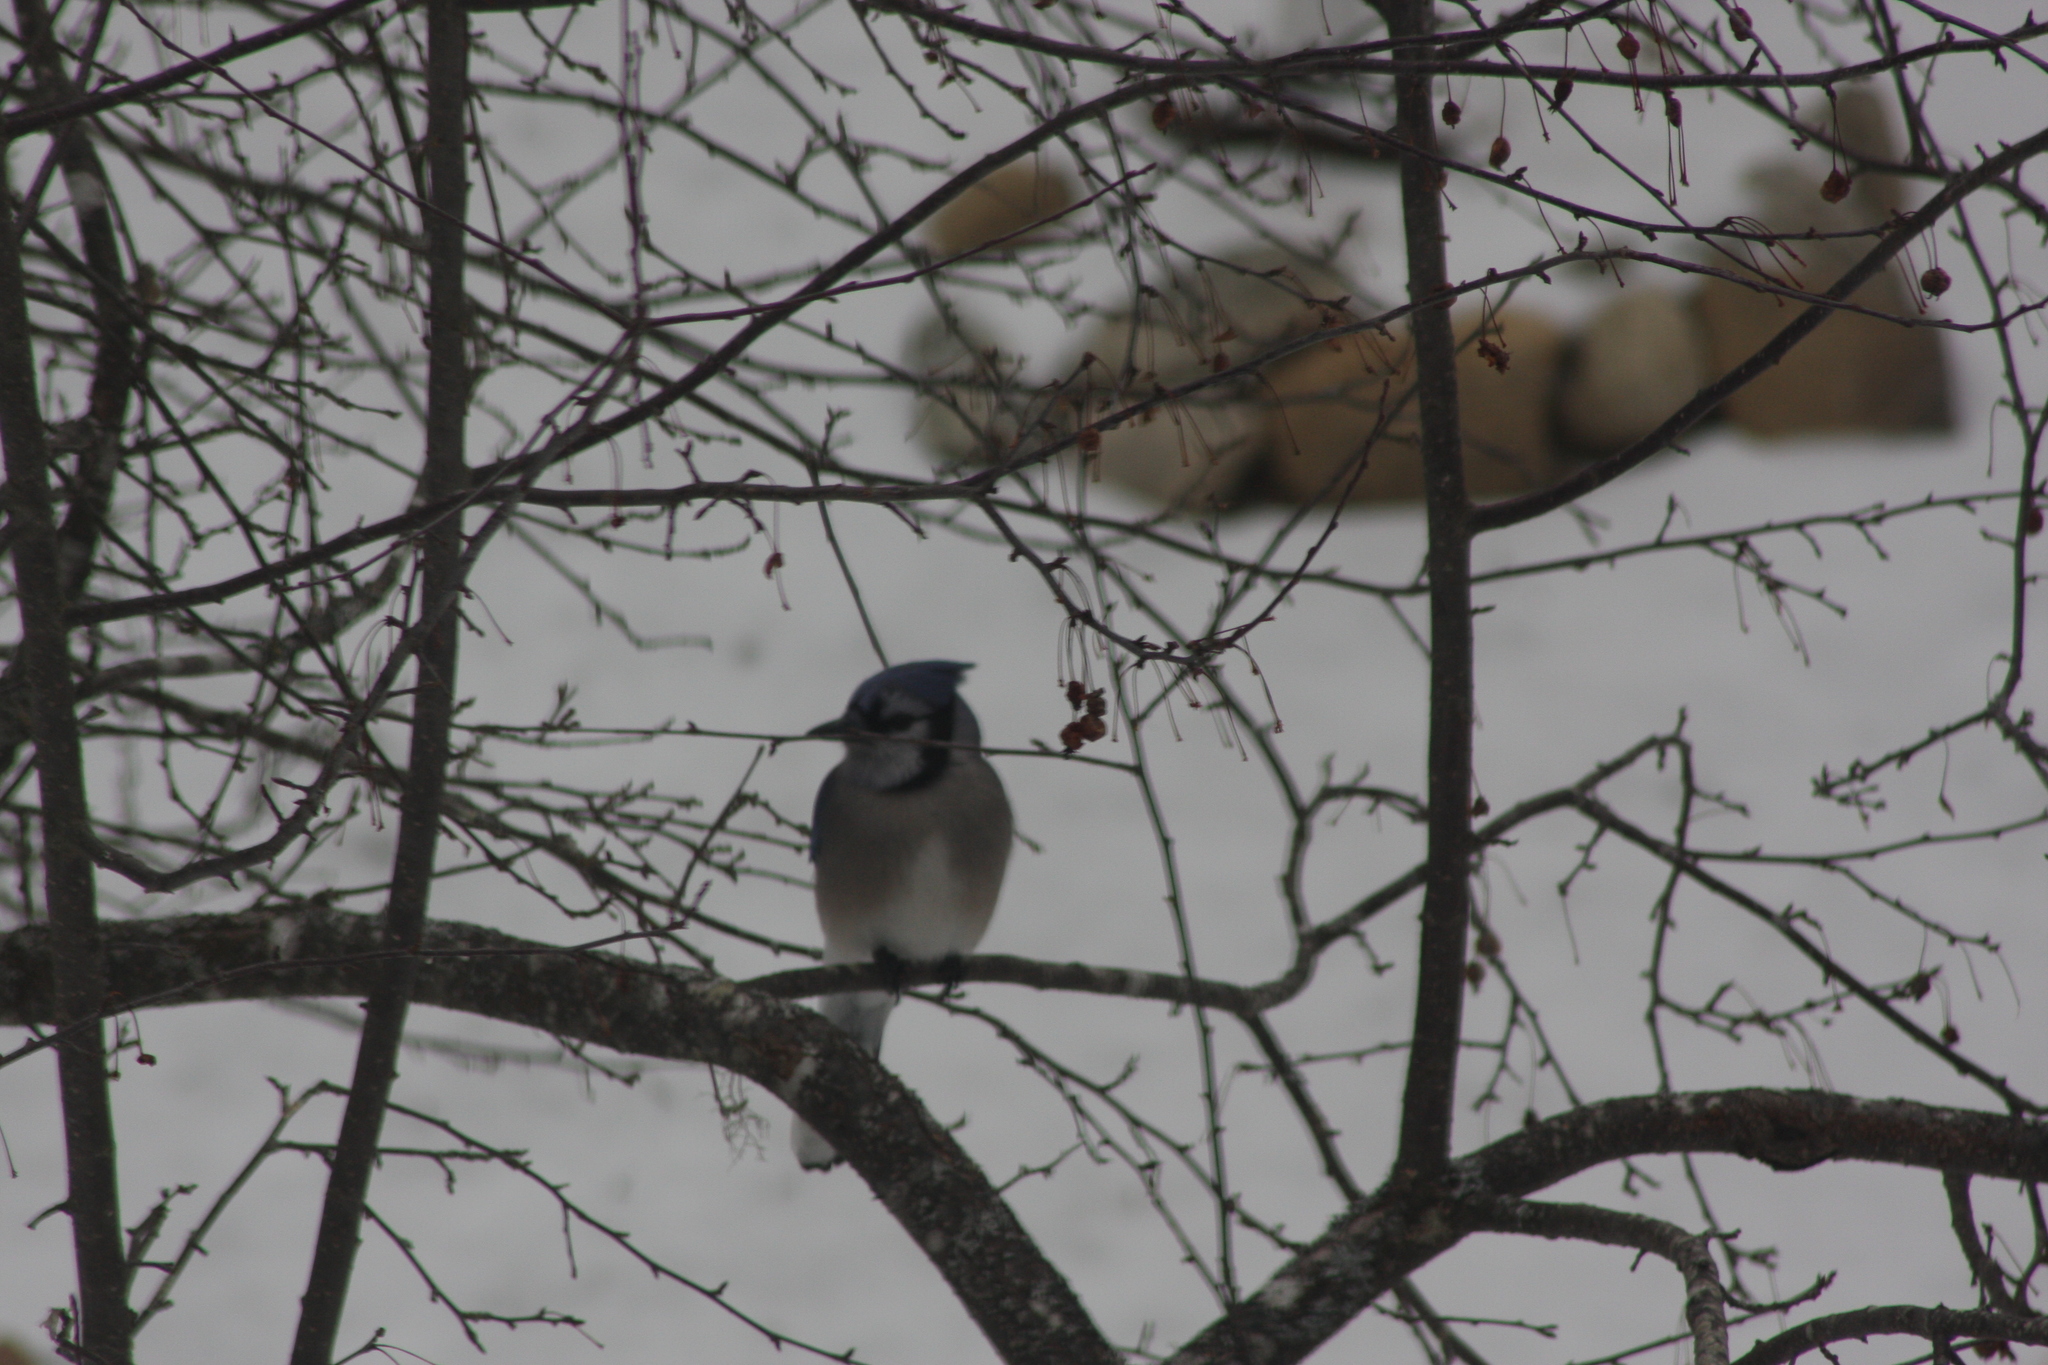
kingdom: Animalia
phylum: Chordata
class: Aves
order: Passeriformes
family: Corvidae
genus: Cyanocitta
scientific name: Cyanocitta cristata
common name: Blue jay
